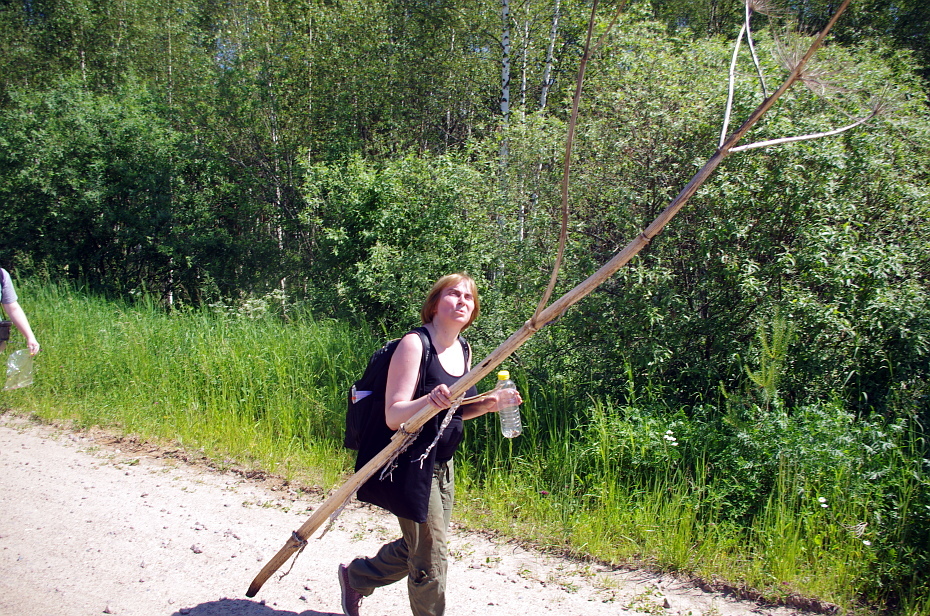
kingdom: Plantae
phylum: Tracheophyta
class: Magnoliopsida
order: Apiales
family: Apiaceae
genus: Heracleum
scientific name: Heracleum sosnowskyi
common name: Sosnowsky's hogweed
